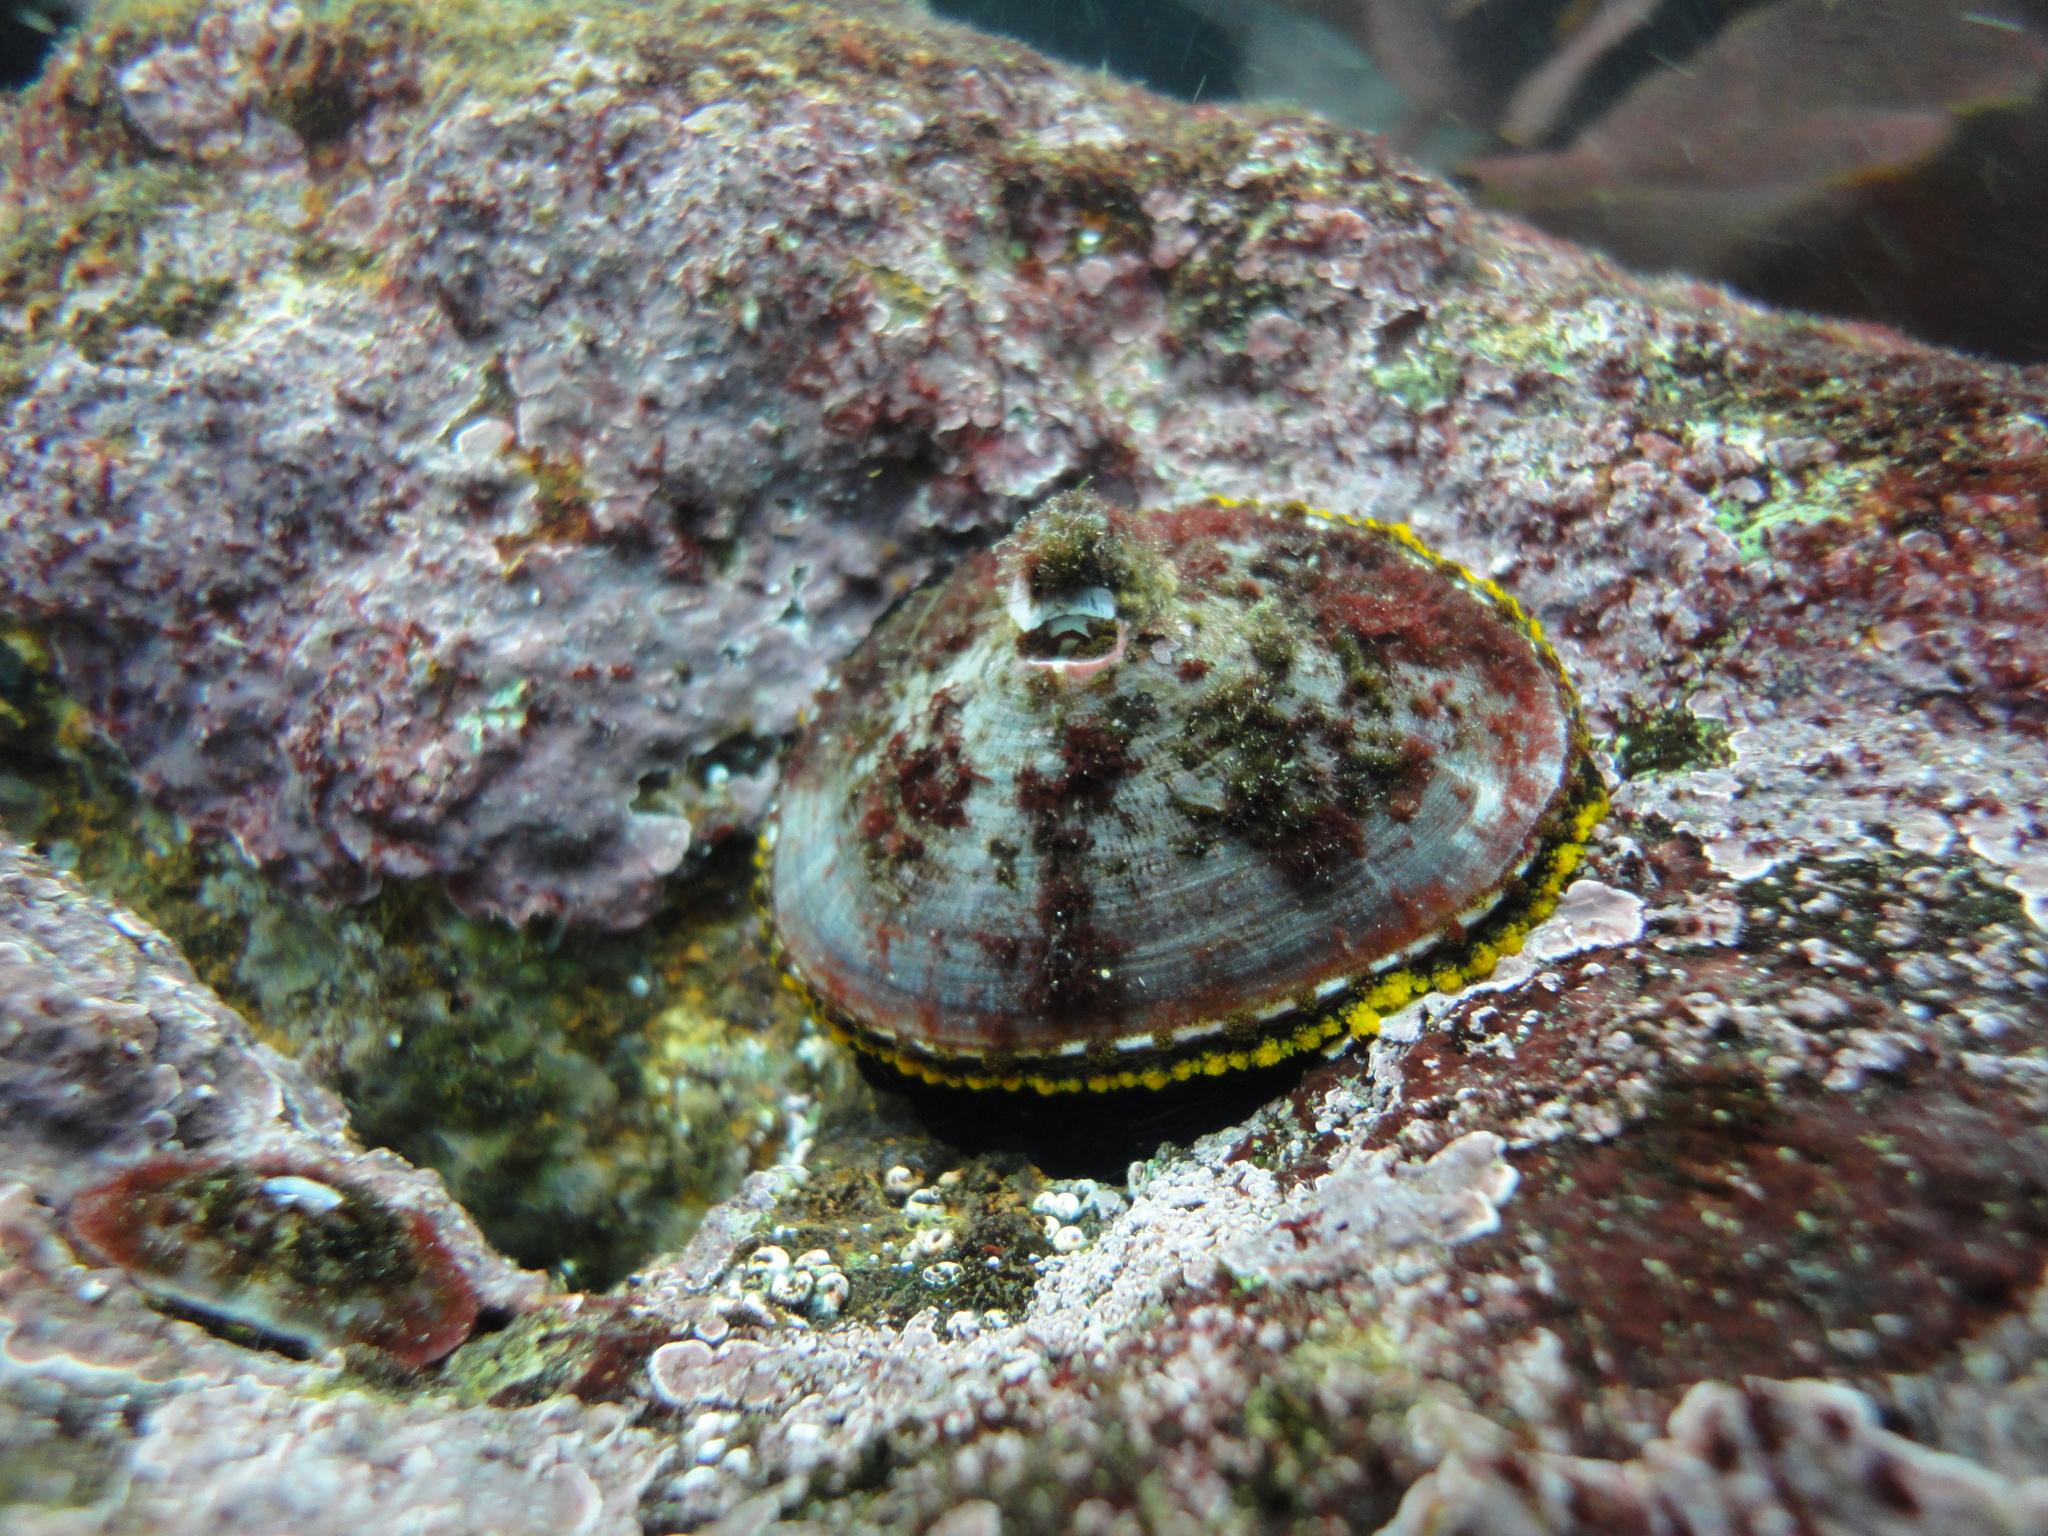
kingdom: Animalia
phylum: Mollusca
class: Gastropoda
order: Lepetellida
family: Fissurellidae
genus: Fissurella
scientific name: Fissurella latimarginata
